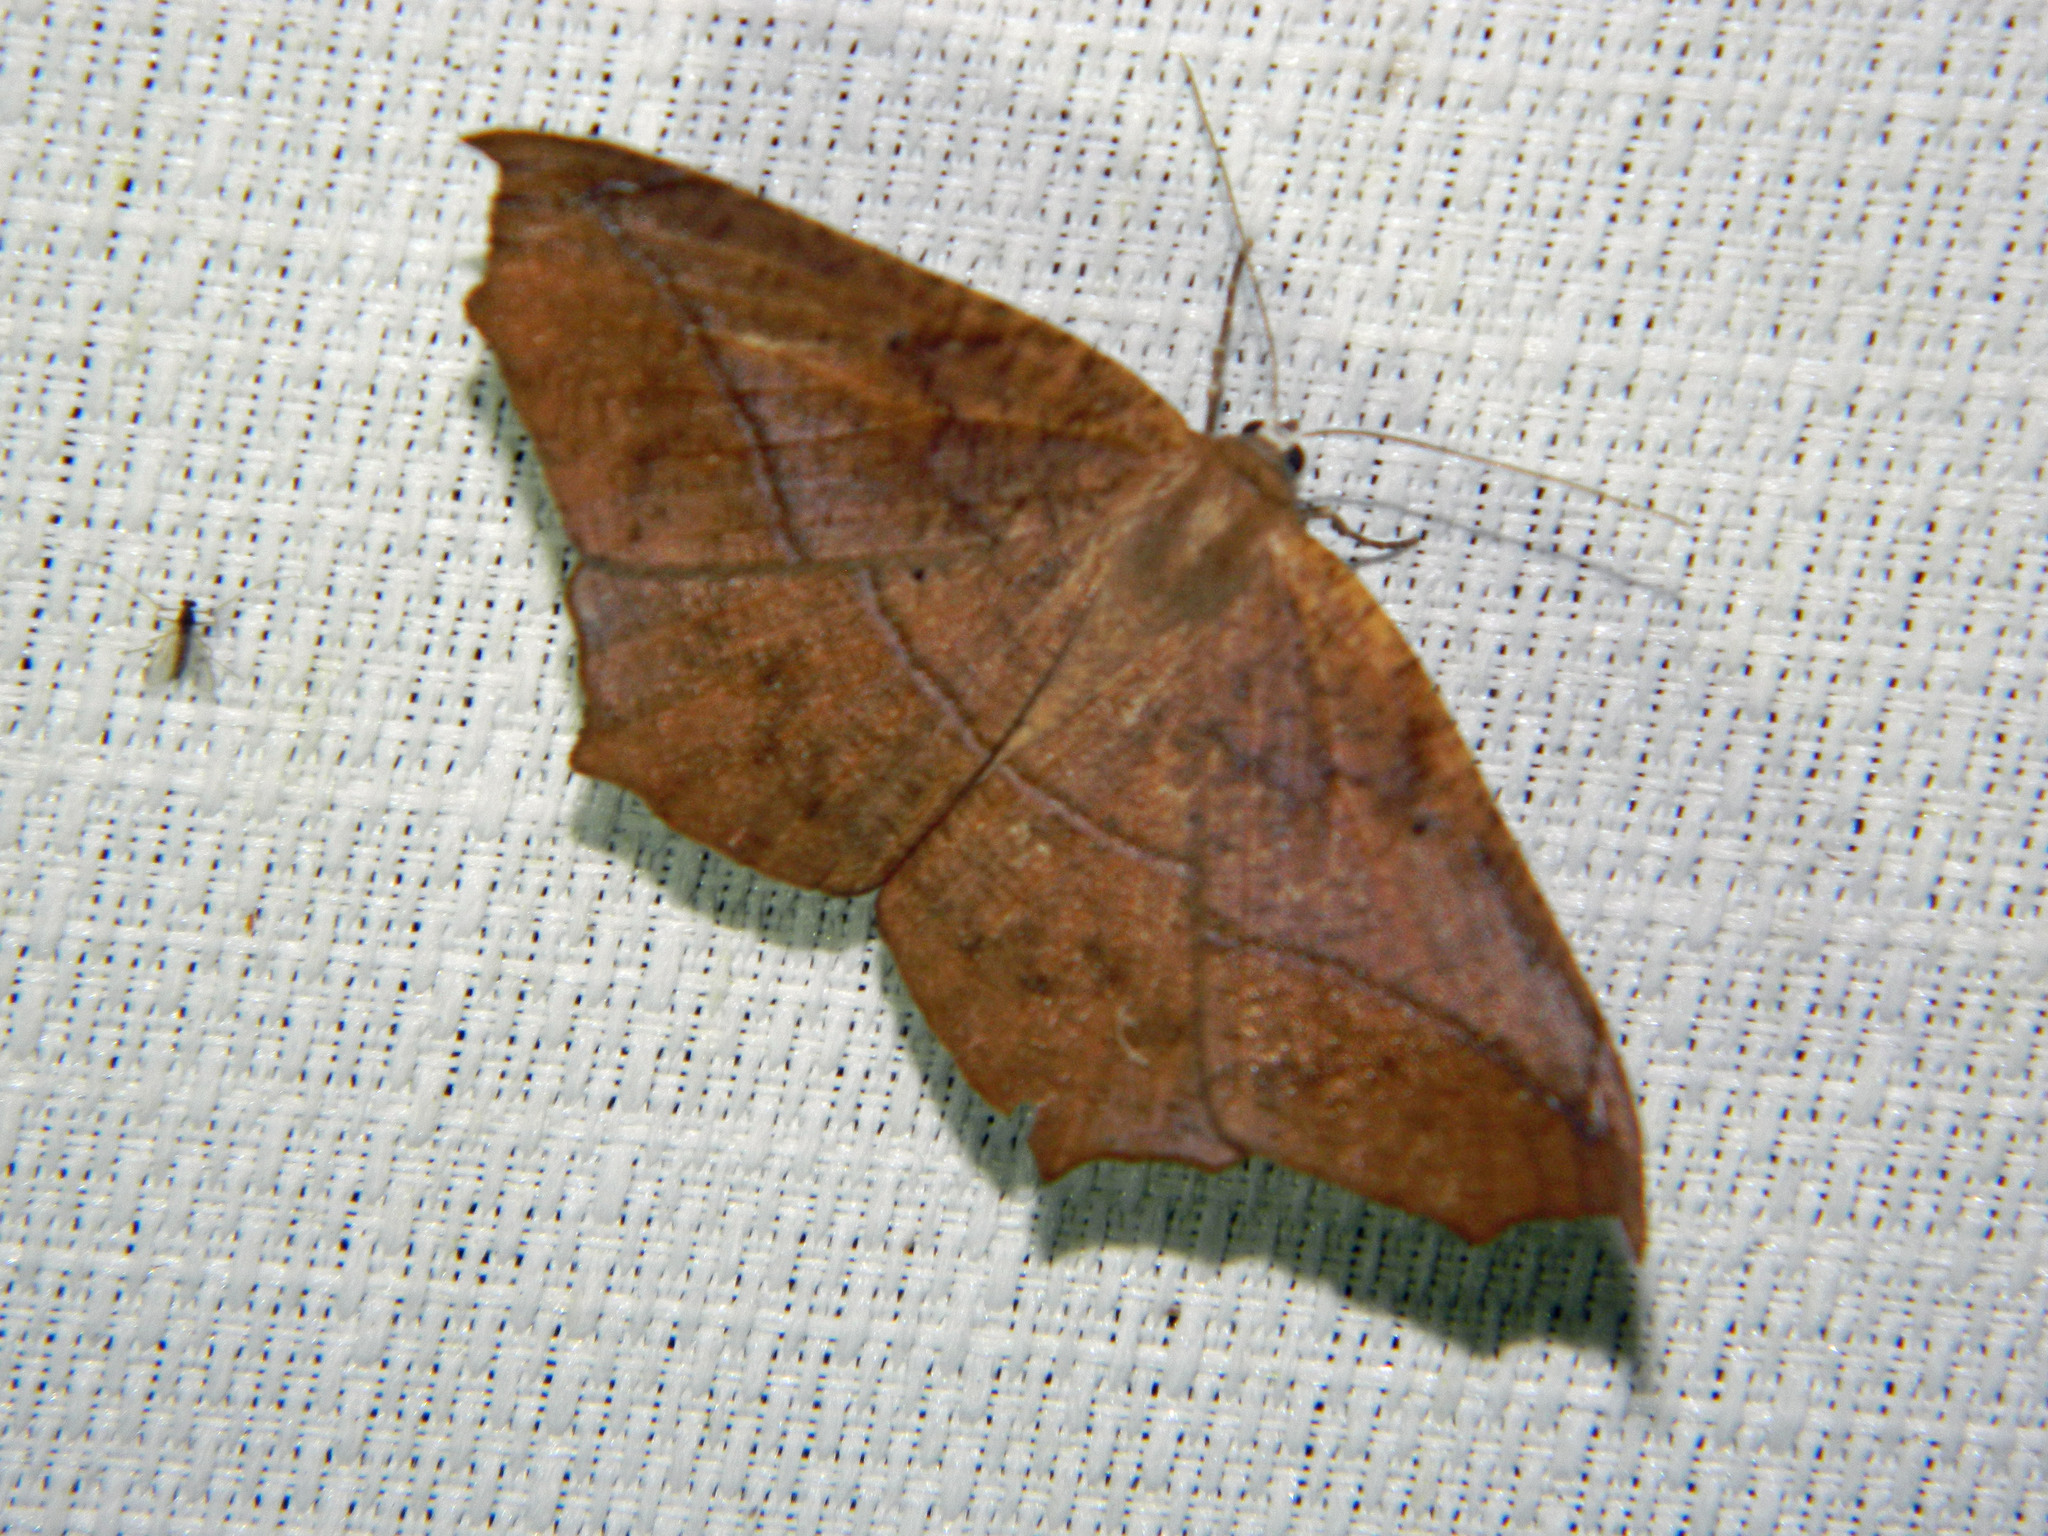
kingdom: Animalia
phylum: Arthropoda
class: Insecta
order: Lepidoptera
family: Geometridae
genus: Prochoerodes
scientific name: Prochoerodes lineola
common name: Large maple spanworm
